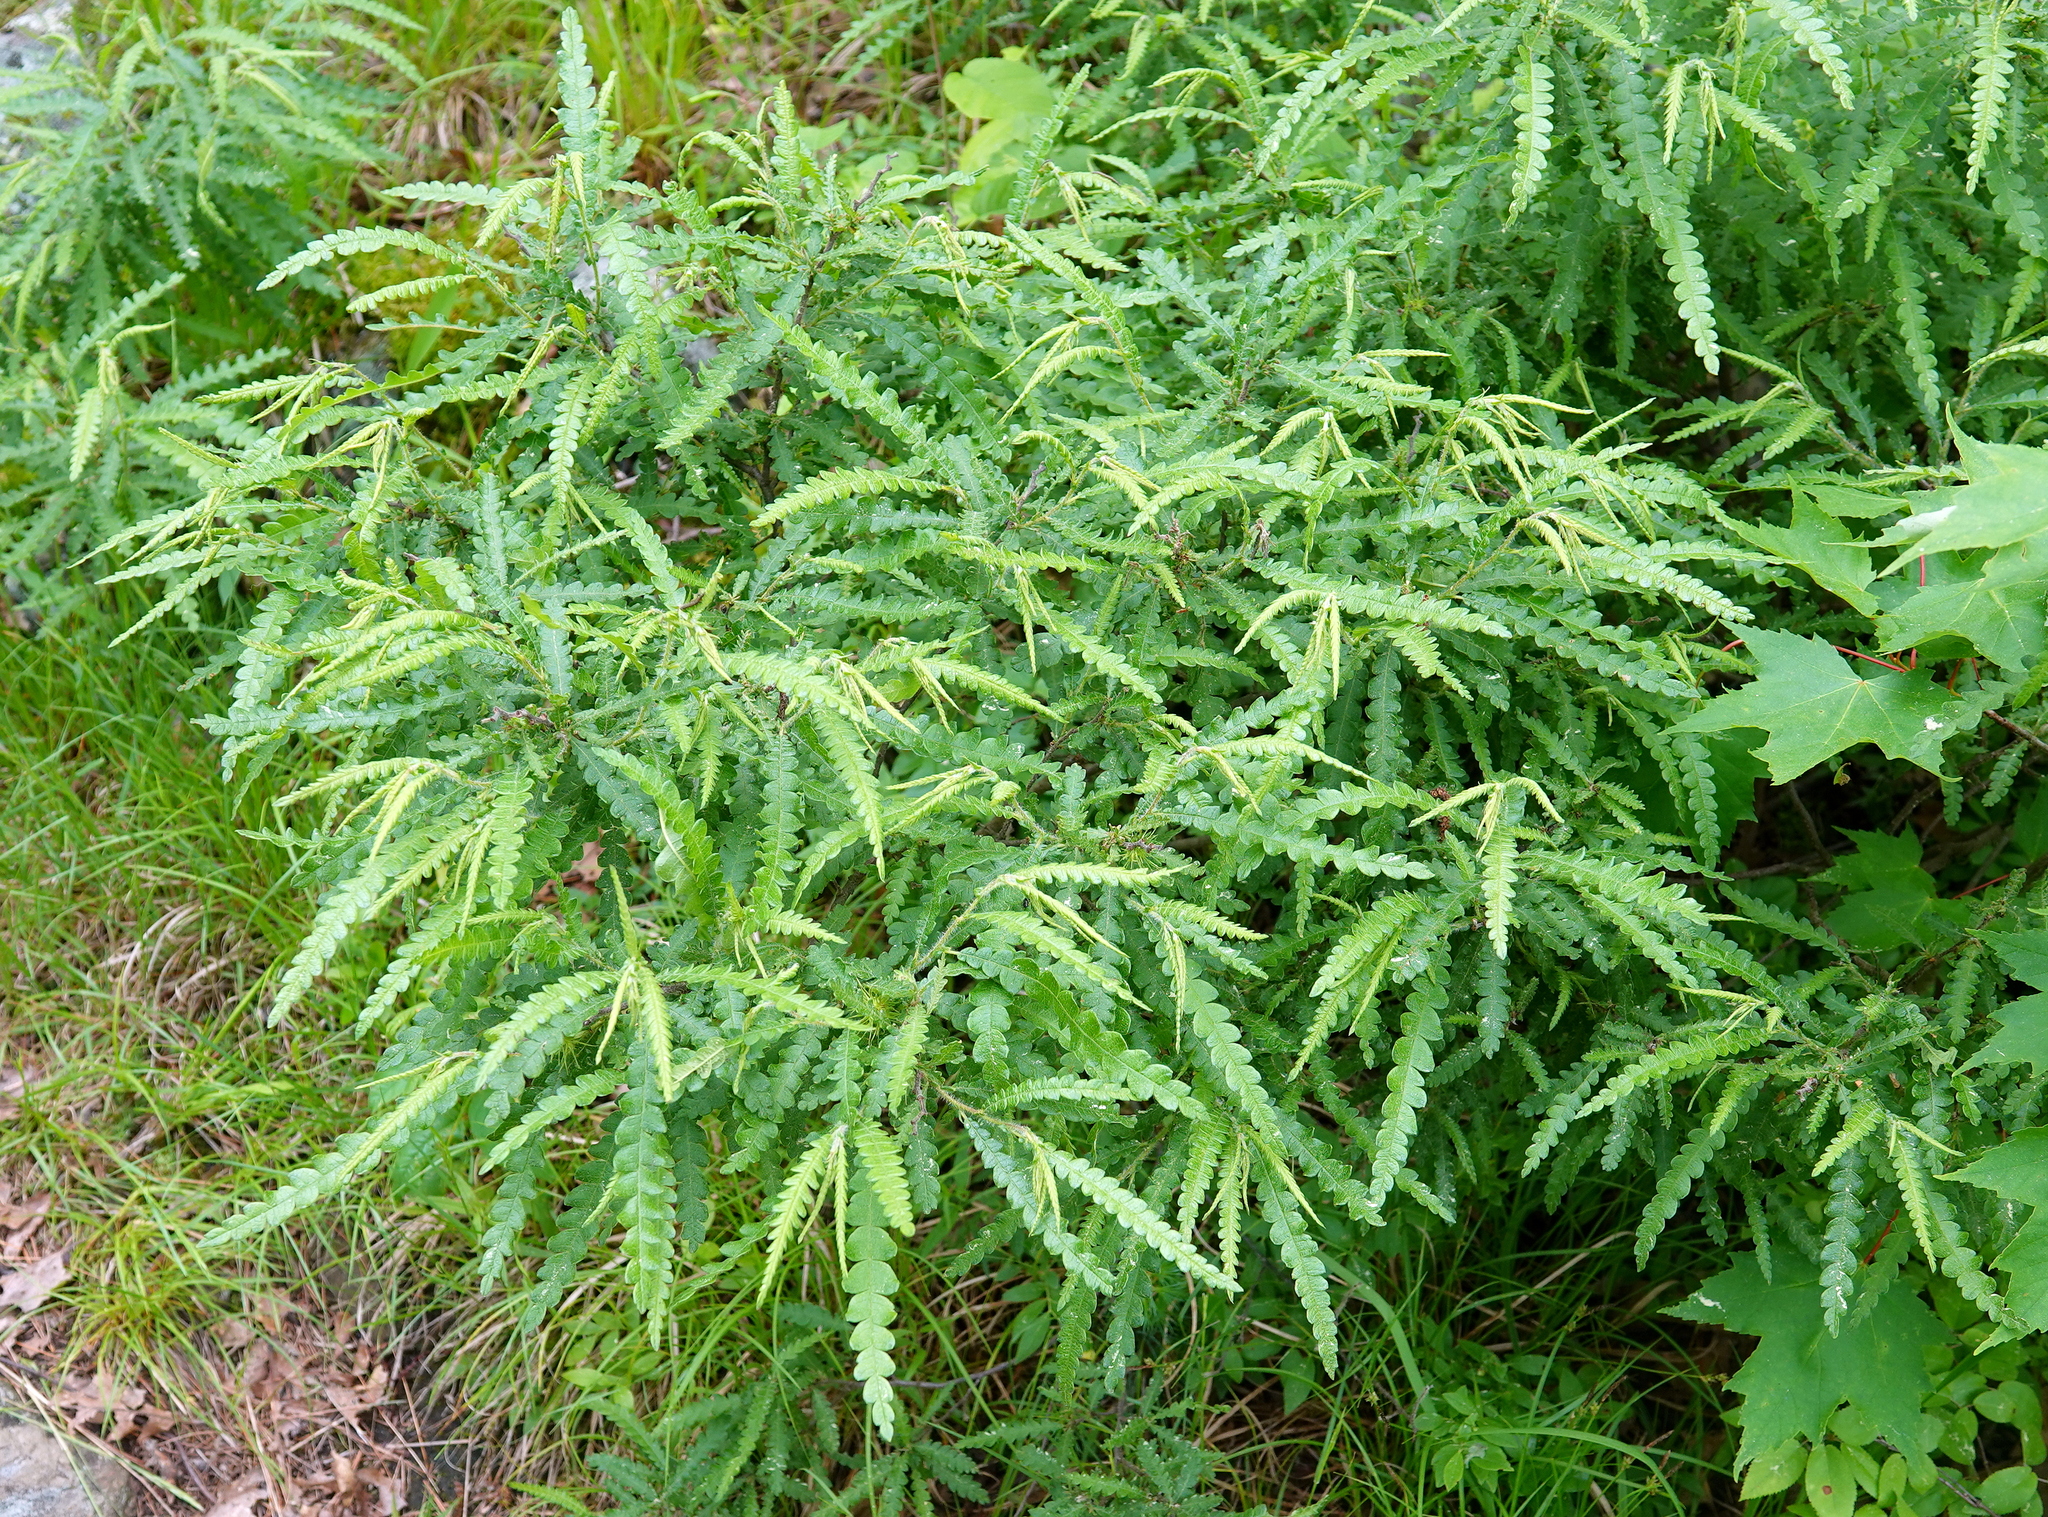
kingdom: Plantae
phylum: Tracheophyta
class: Magnoliopsida
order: Fagales
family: Myricaceae
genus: Comptonia
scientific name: Comptonia peregrina
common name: Sweet-fern
